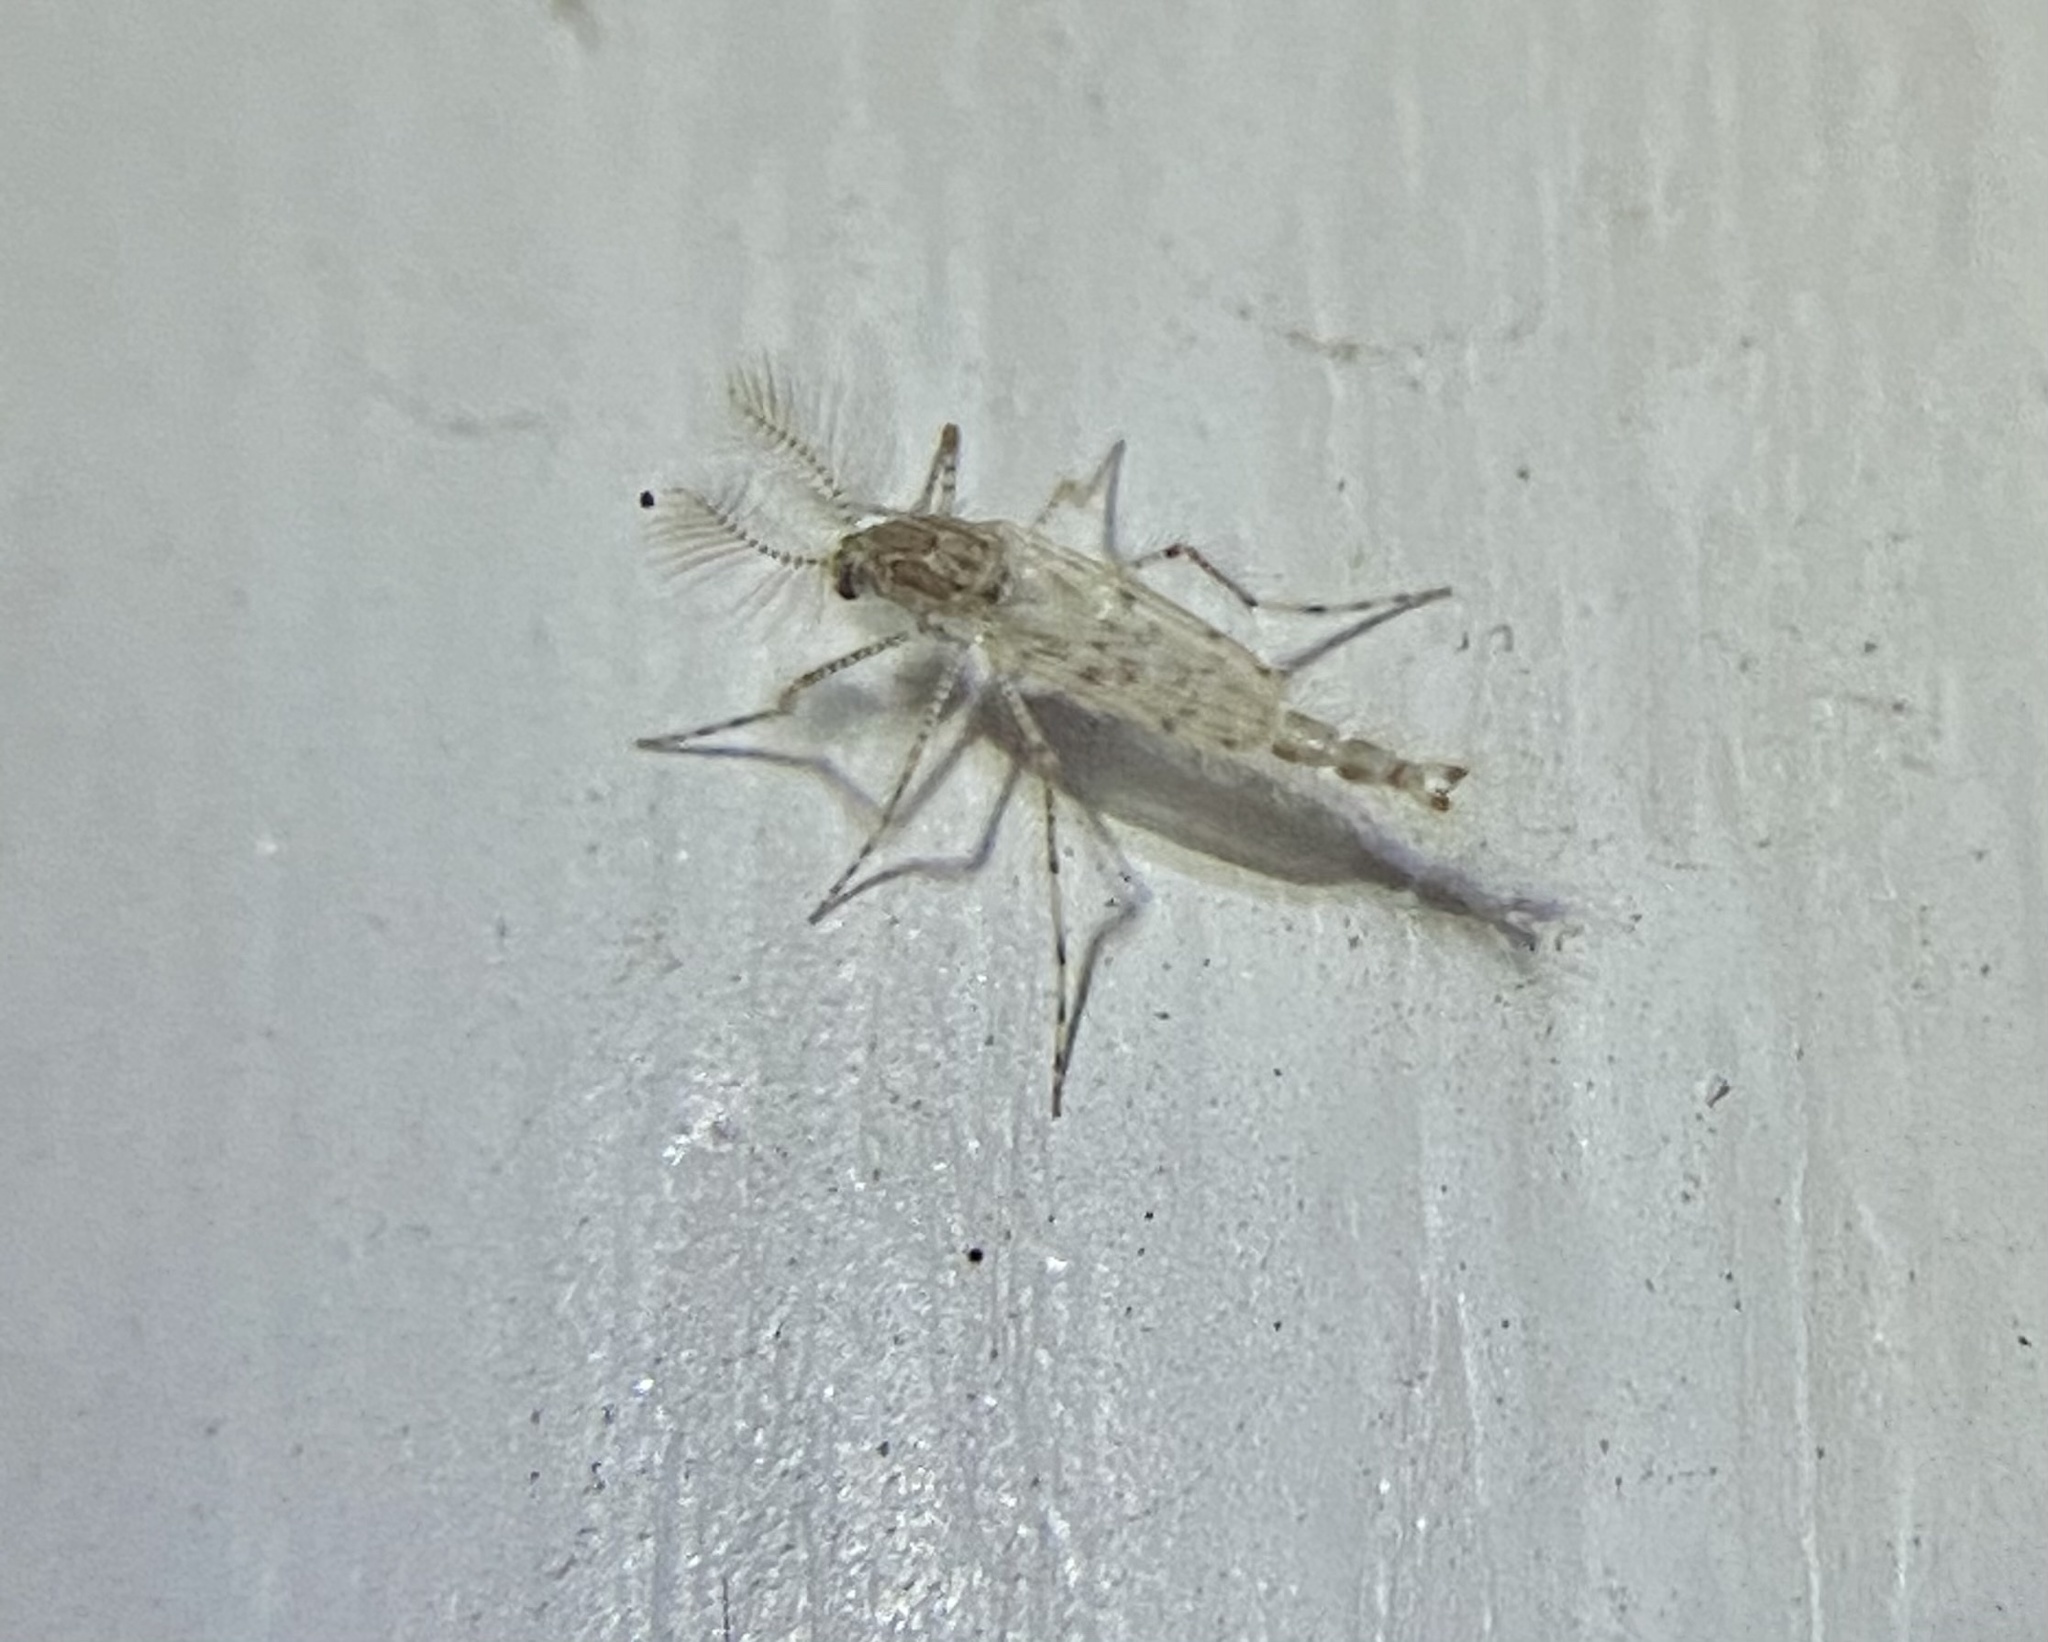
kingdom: Animalia
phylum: Arthropoda
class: Insecta
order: Diptera
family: Chaoboridae
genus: Chaoborus
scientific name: Chaoborus punctipennis
